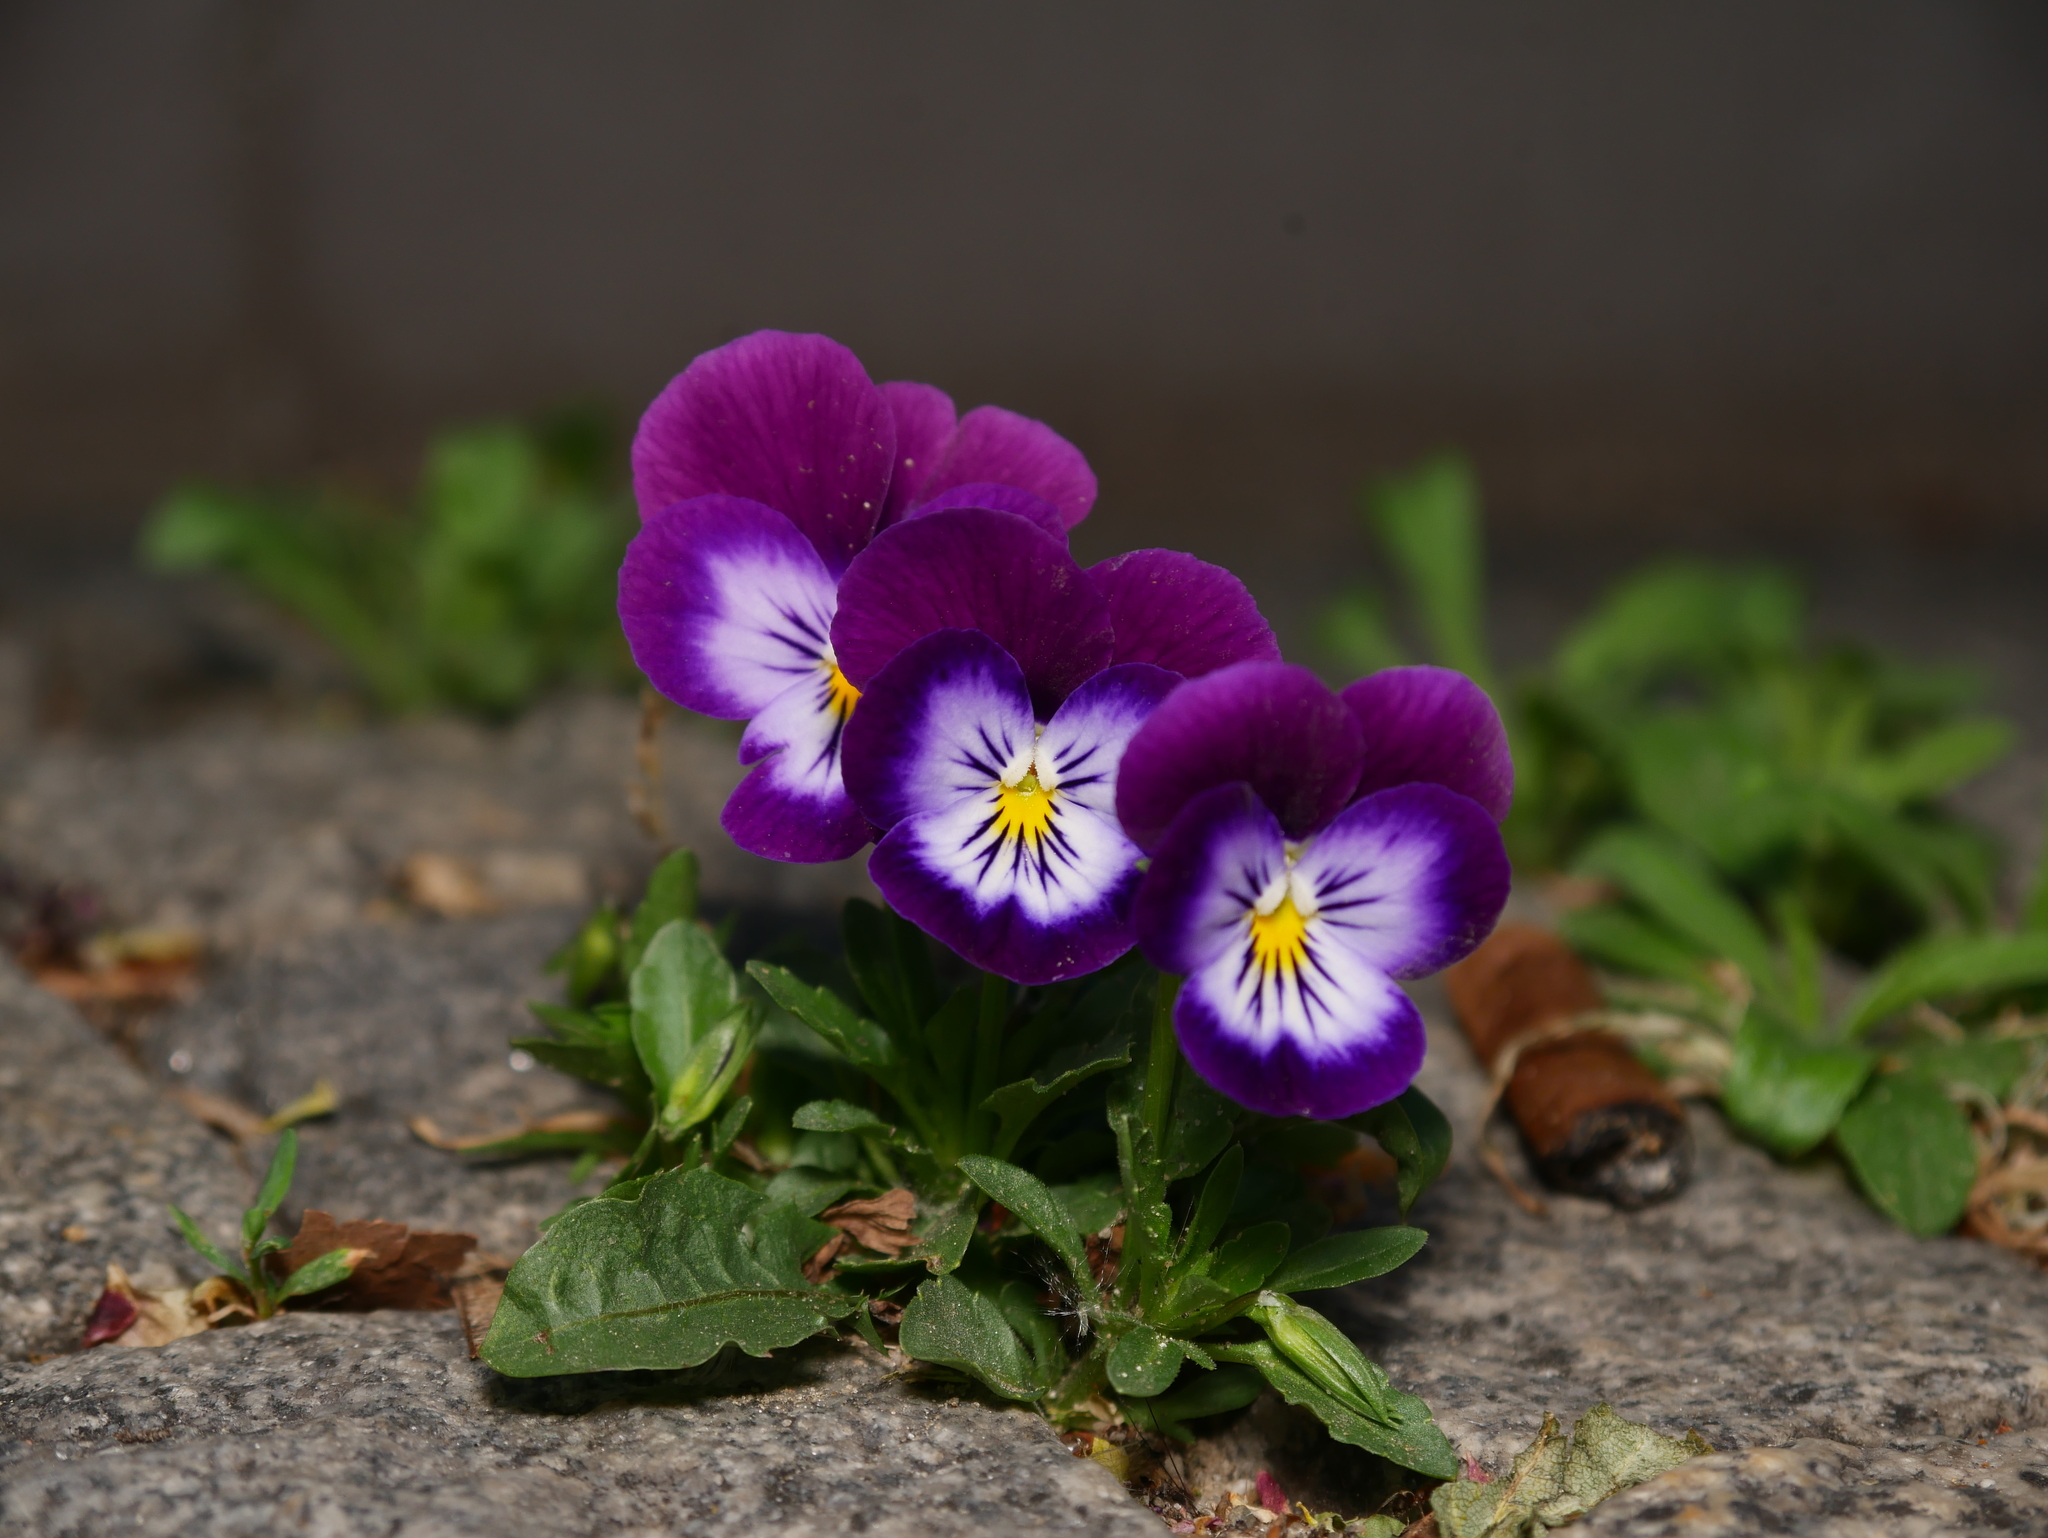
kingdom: Plantae
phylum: Tracheophyta
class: Magnoliopsida
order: Malpighiales
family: Violaceae
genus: Viola
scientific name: Viola wittrockiana
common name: Garden pansy
